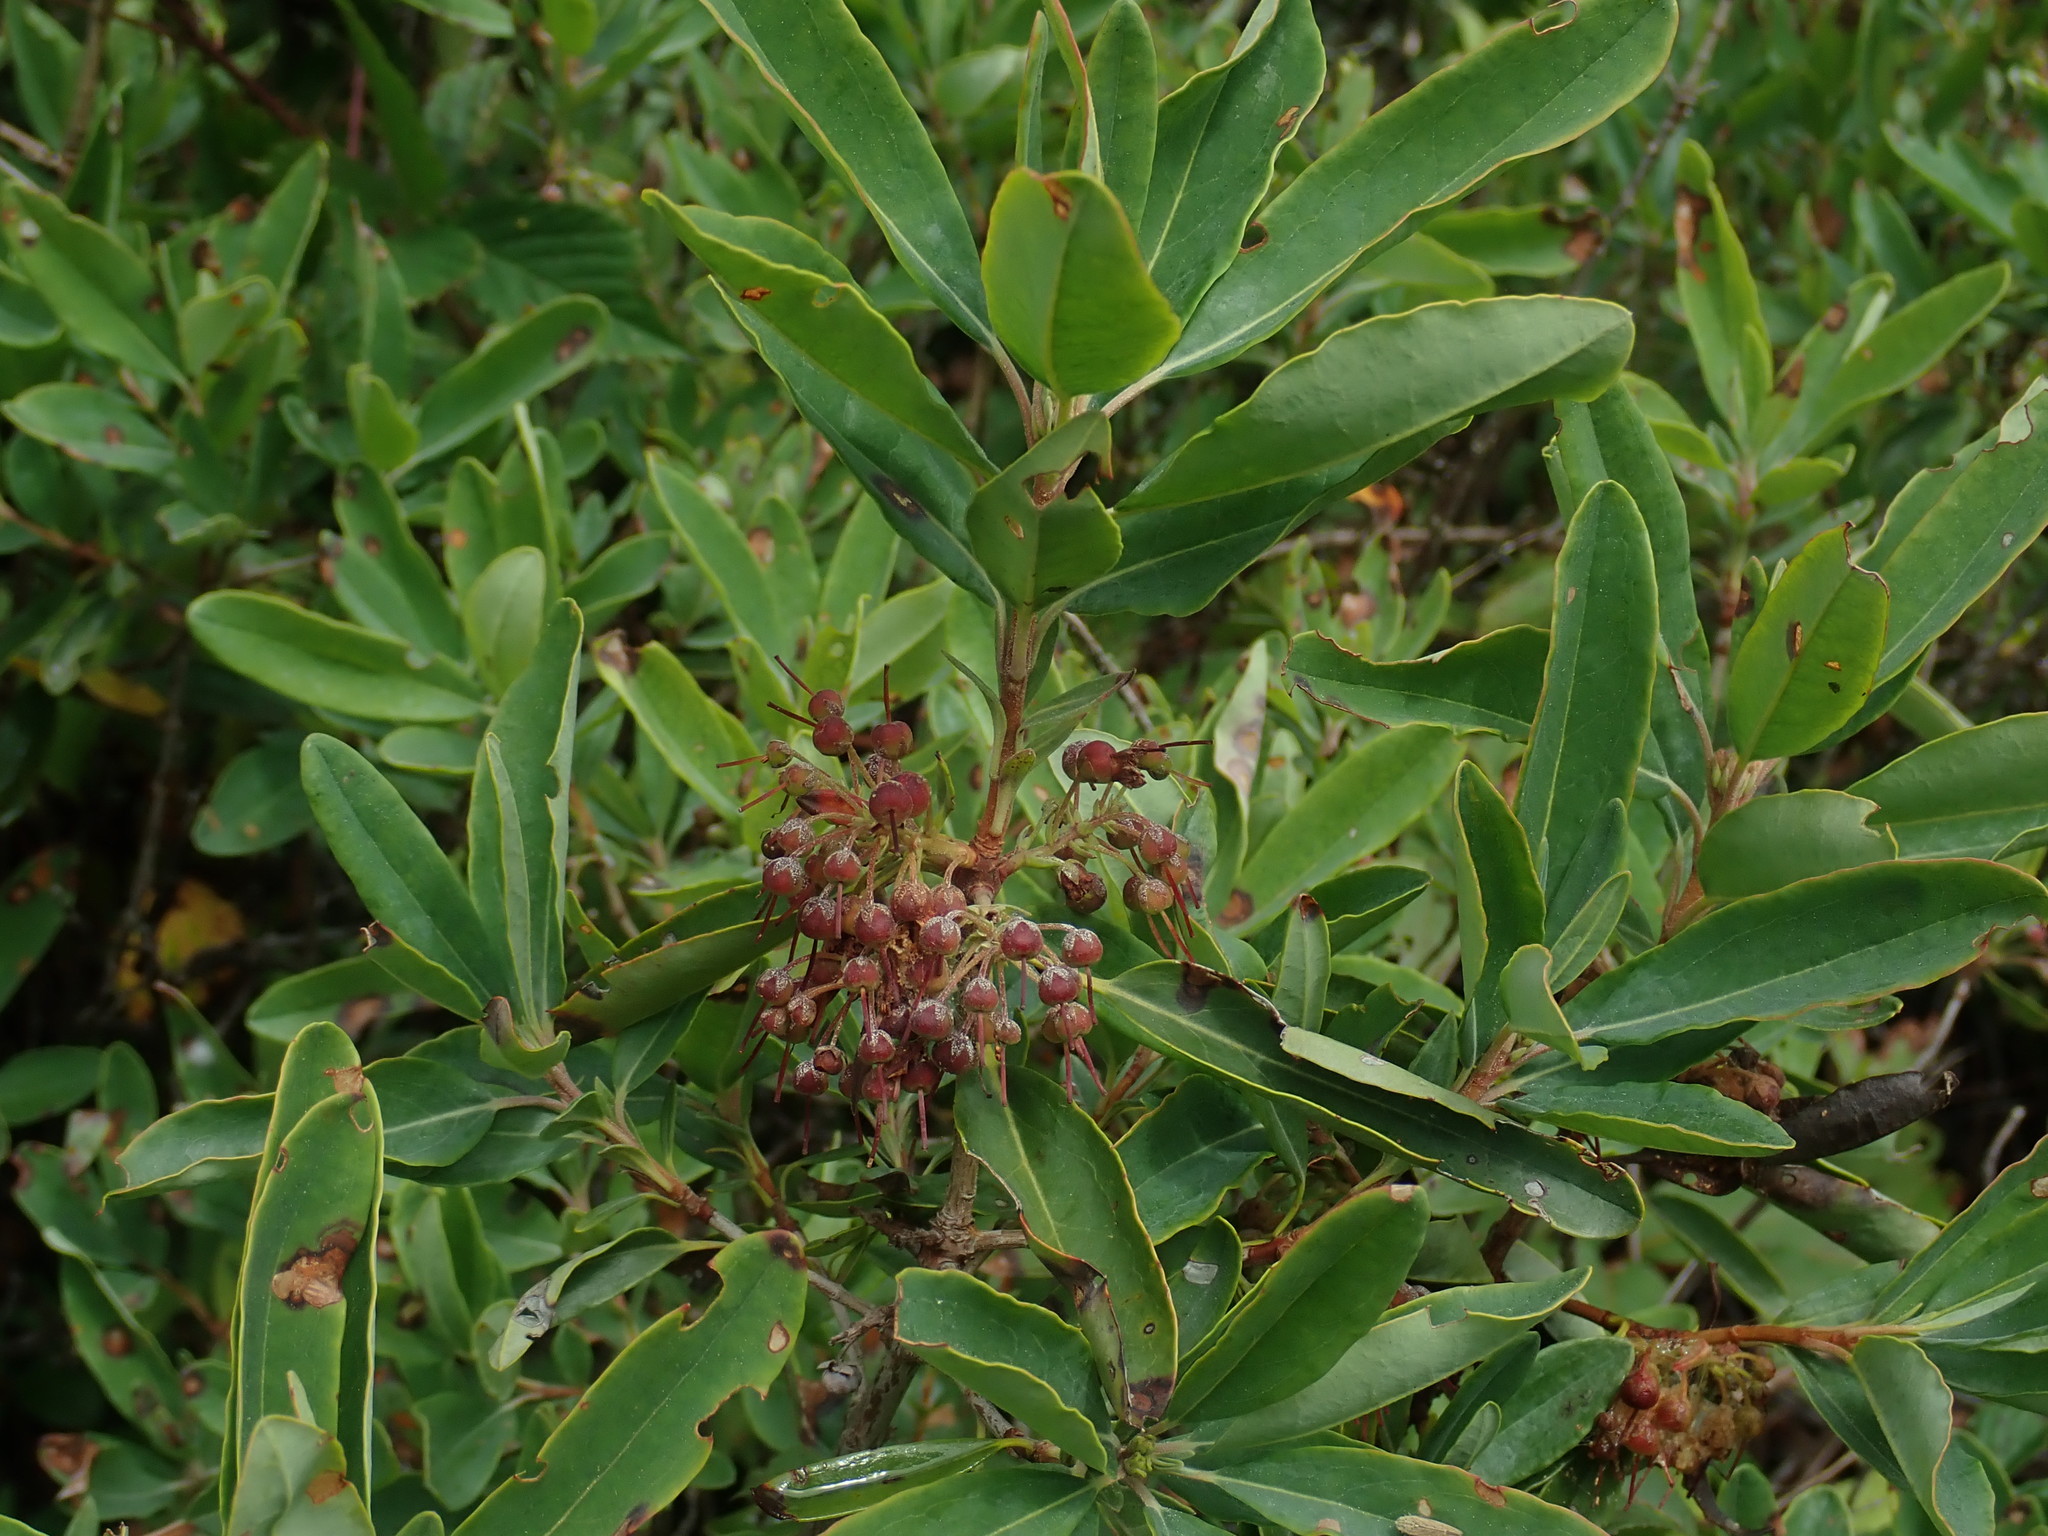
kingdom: Plantae
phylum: Tracheophyta
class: Magnoliopsida
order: Ericales
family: Ericaceae
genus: Kalmia
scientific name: Kalmia angustifolia
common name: Sheep-laurel
